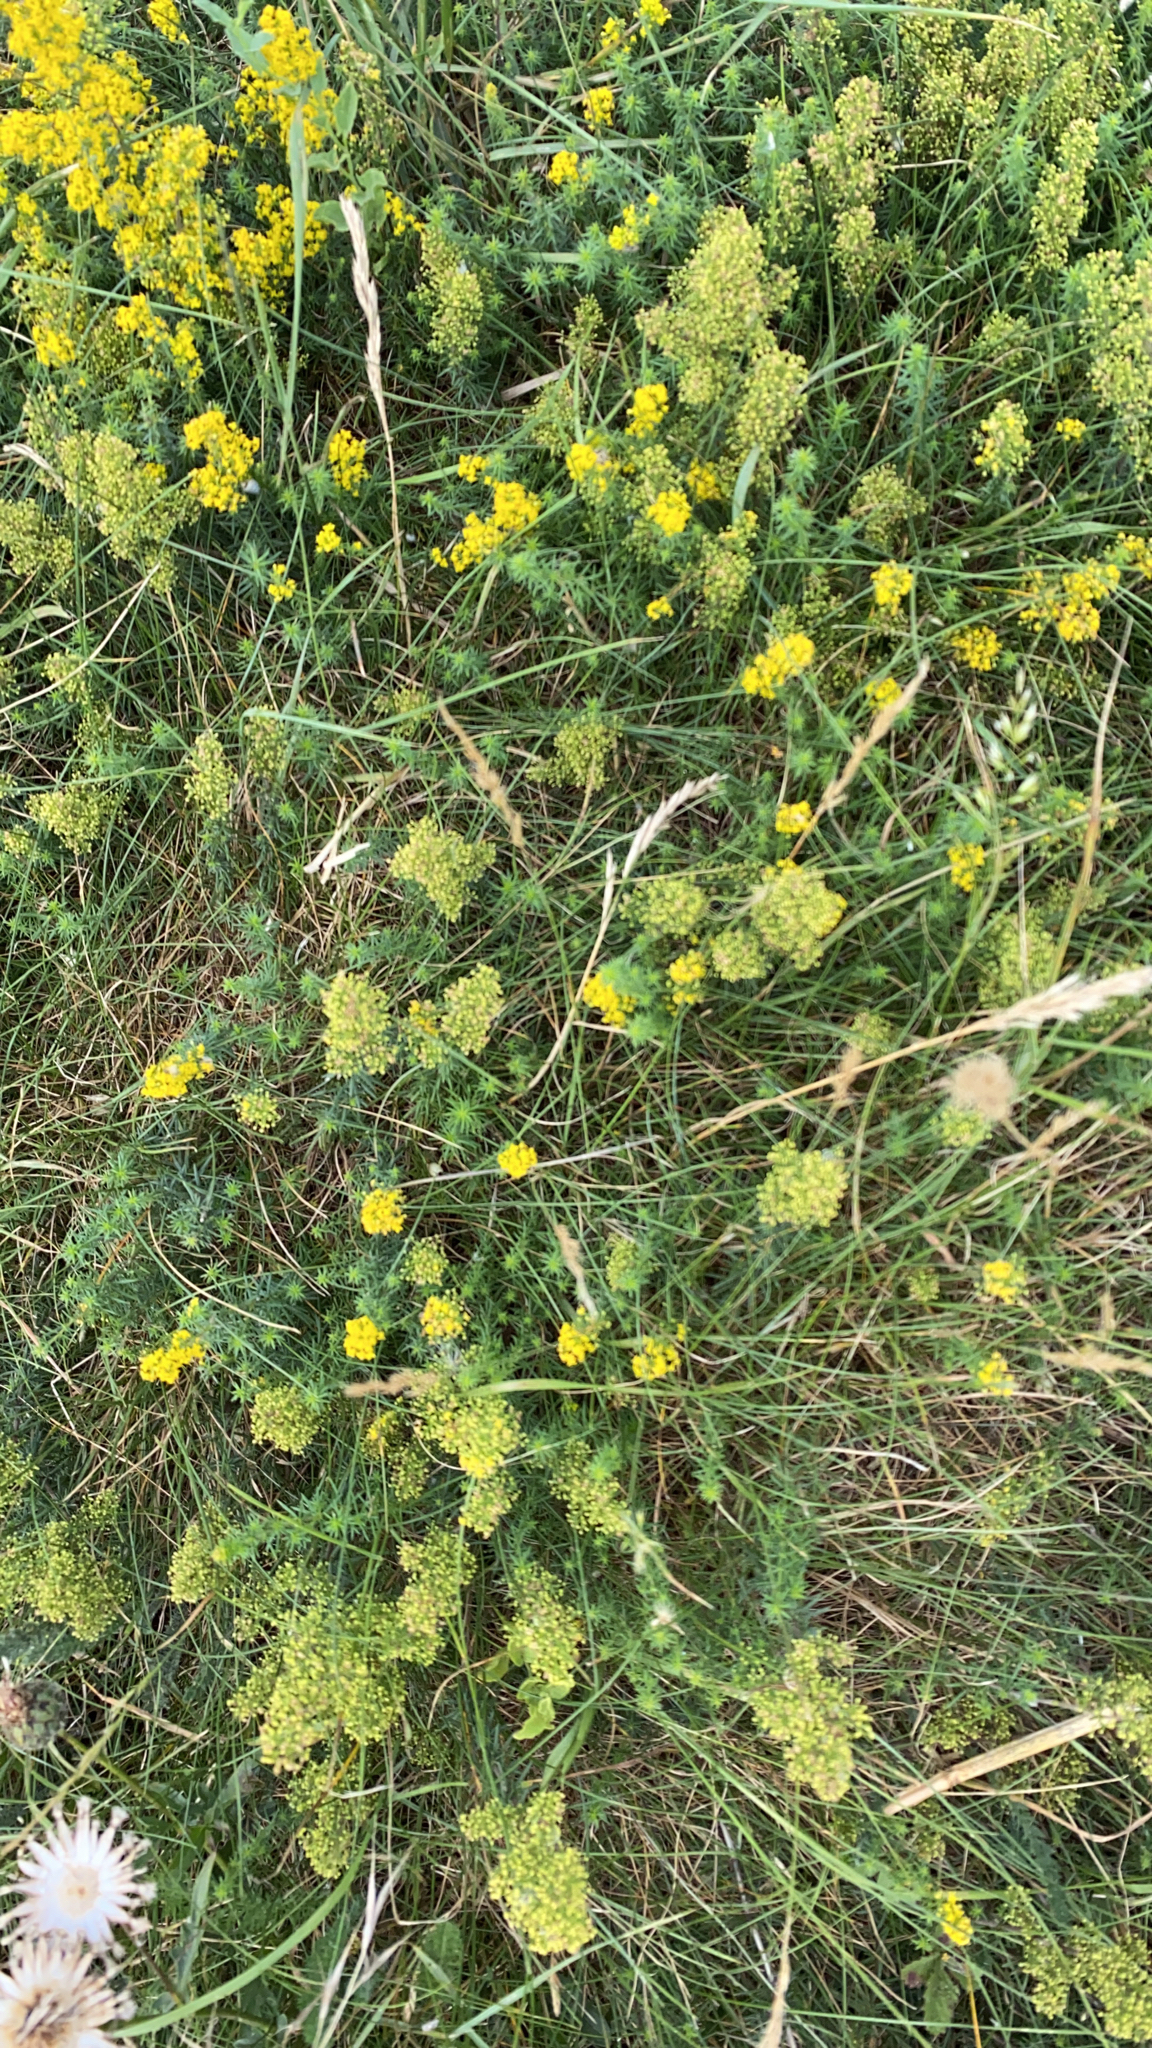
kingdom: Plantae
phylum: Tracheophyta
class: Magnoliopsida
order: Gentianales
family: Rubiaceae
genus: Galium
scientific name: Galium verum
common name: Lady's bedstraw
